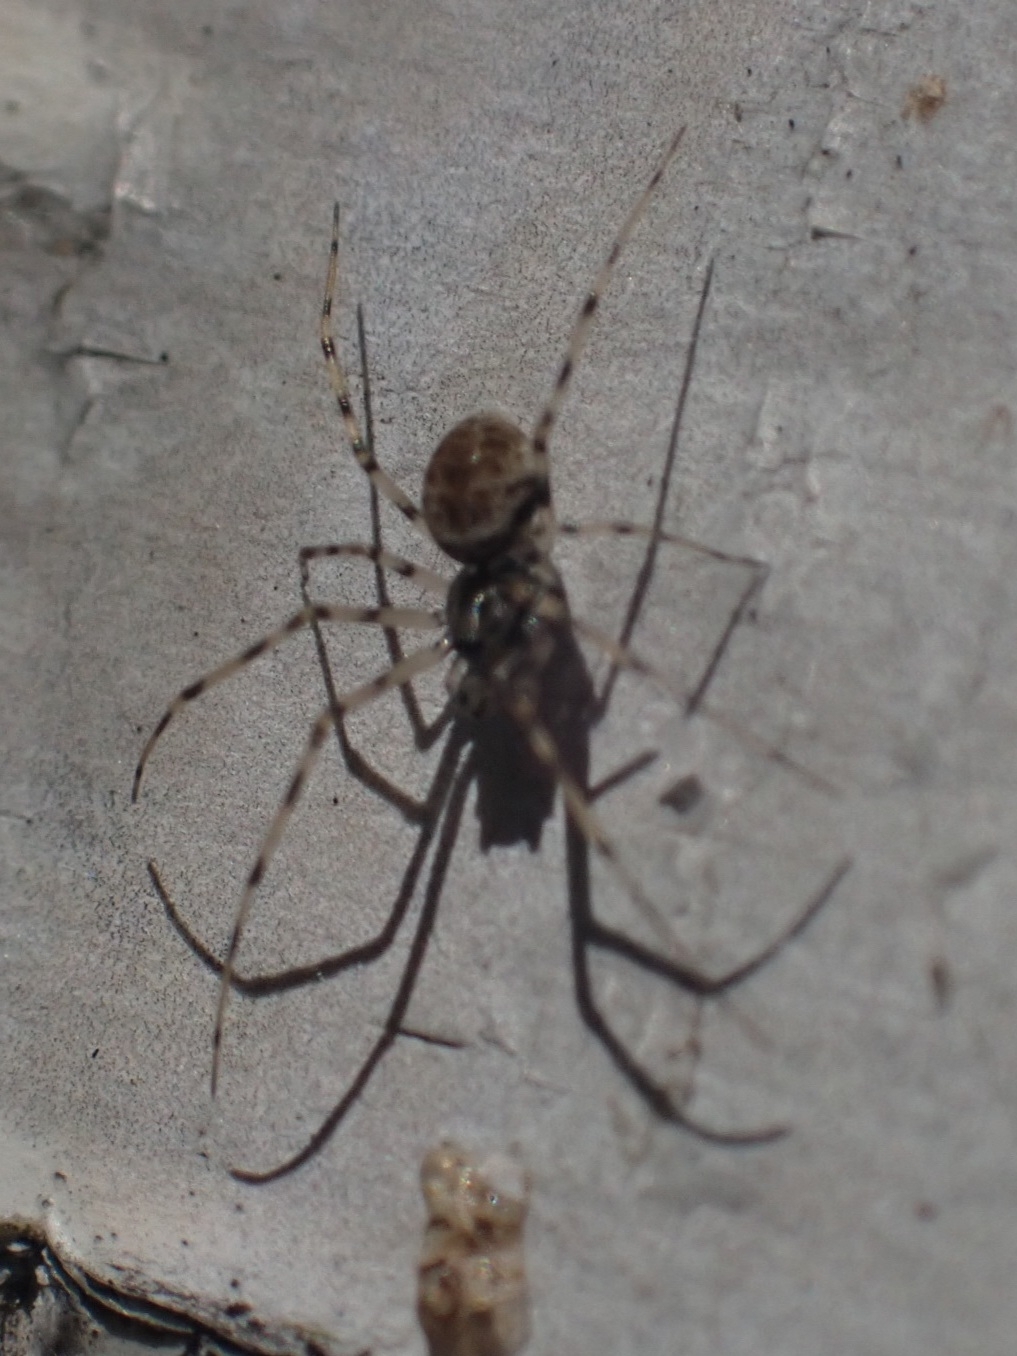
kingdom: Animalia
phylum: Arthropoda
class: Arachnida
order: Araneae
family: Linyphiidae
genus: Drapetisca
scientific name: Drapetisca socialis
